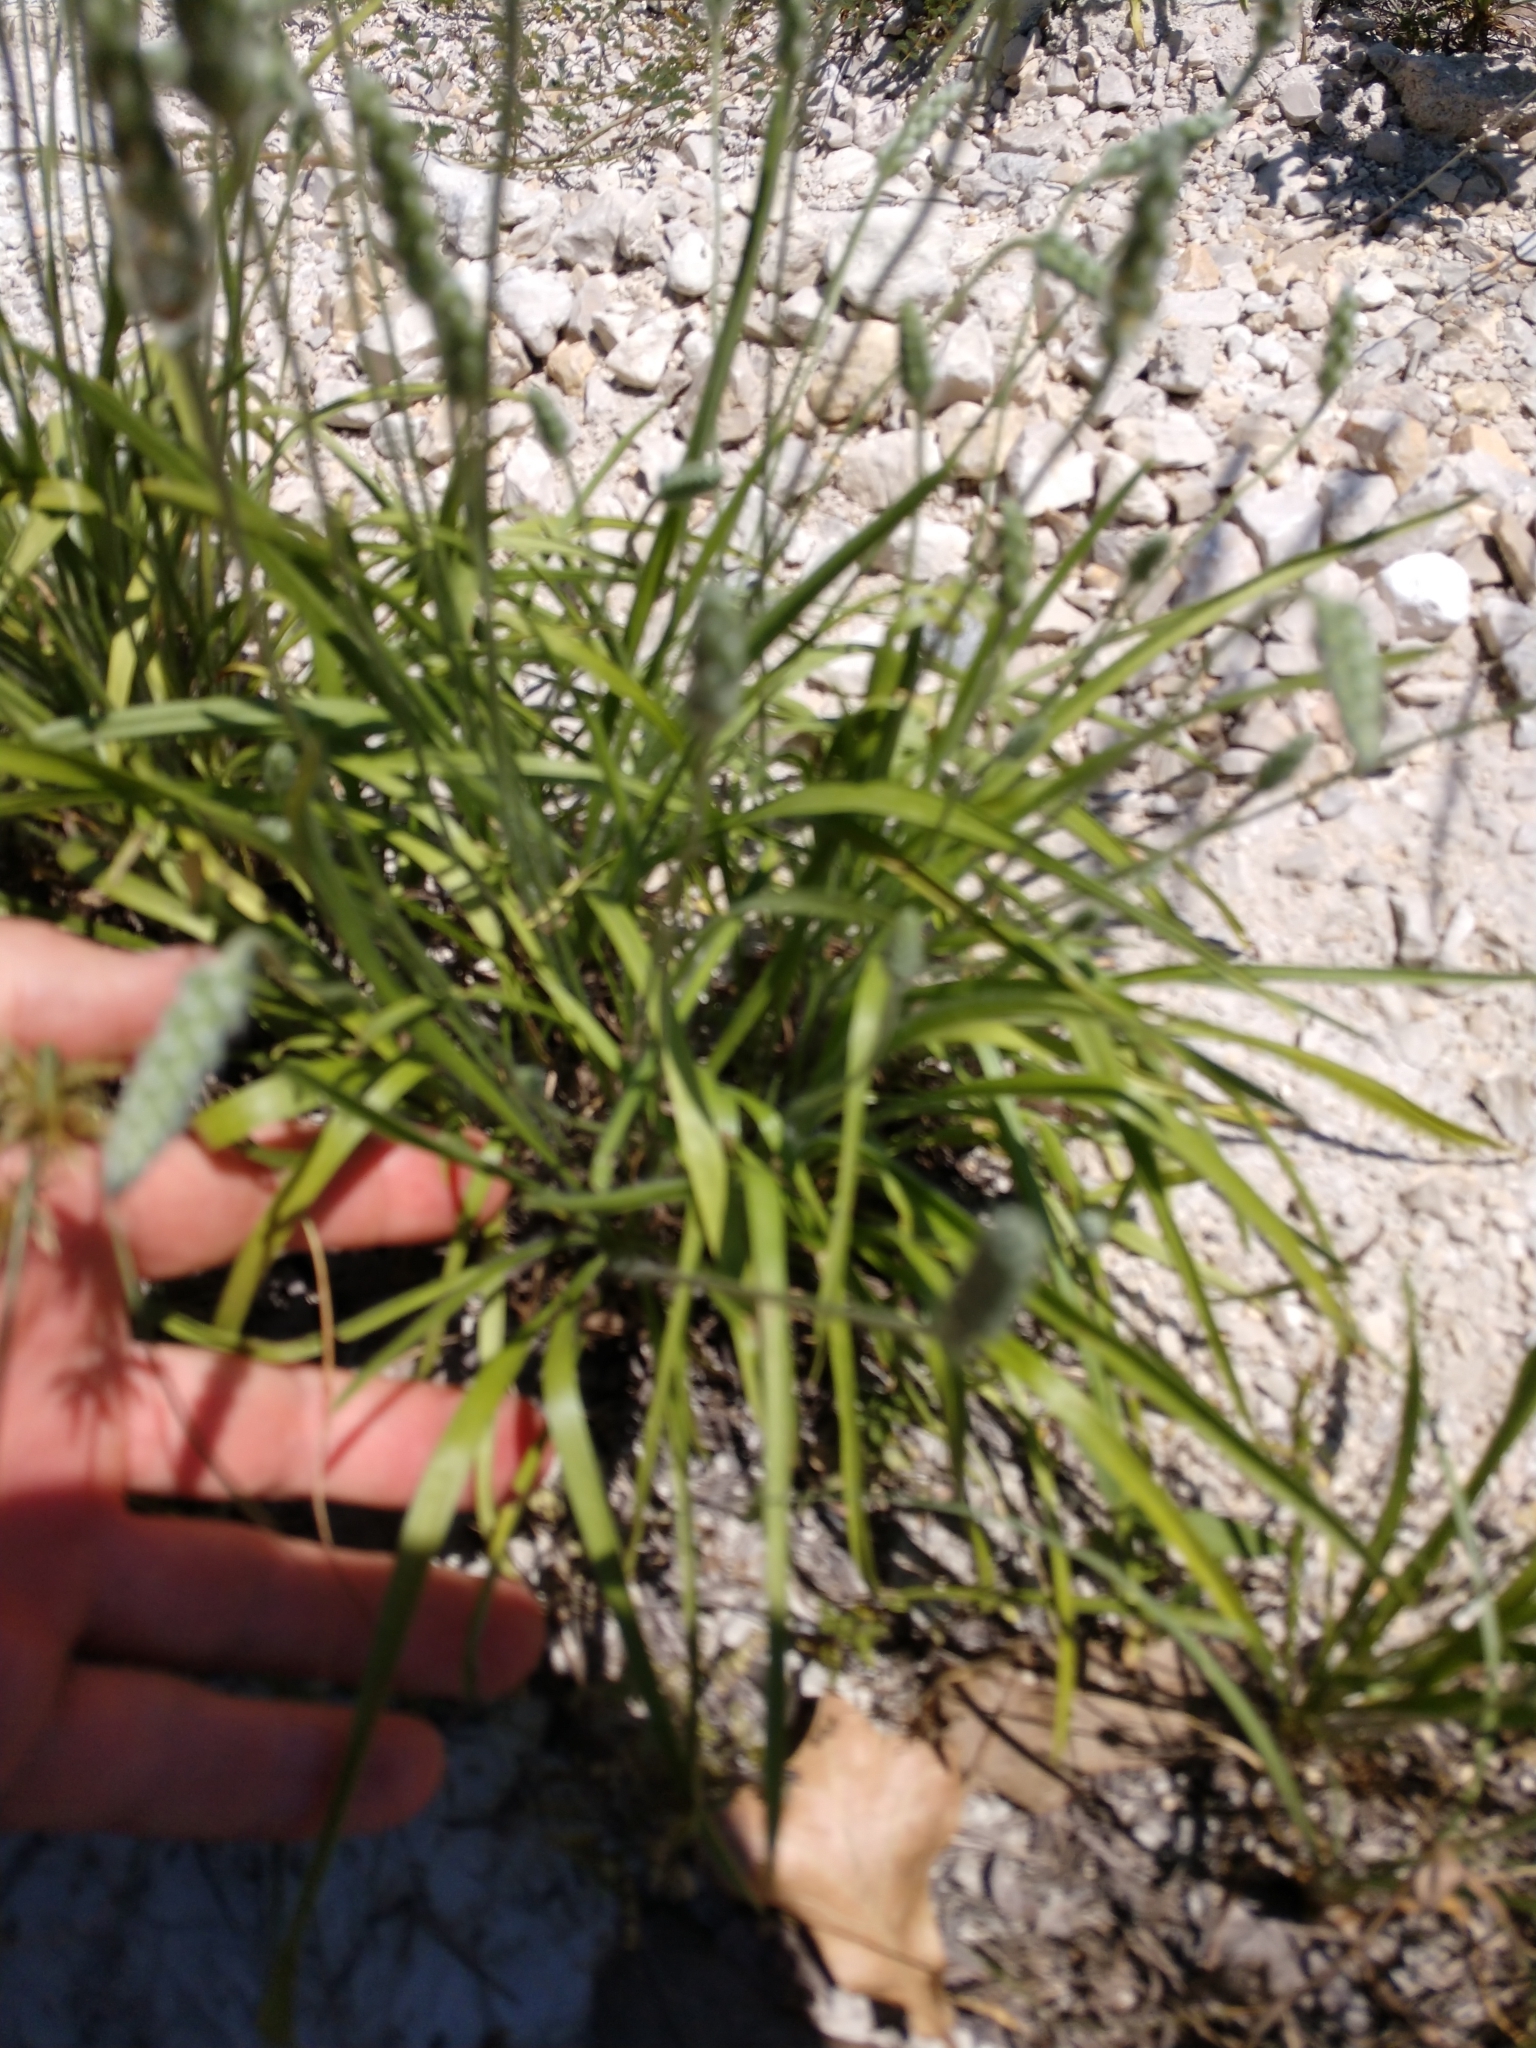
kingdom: Plantae
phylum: Tracheophyta
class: Magnoliopsida
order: Lamiales
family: Plantaginaceae
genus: Plantago
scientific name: Plantago wrightiana
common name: Wright's plantain
